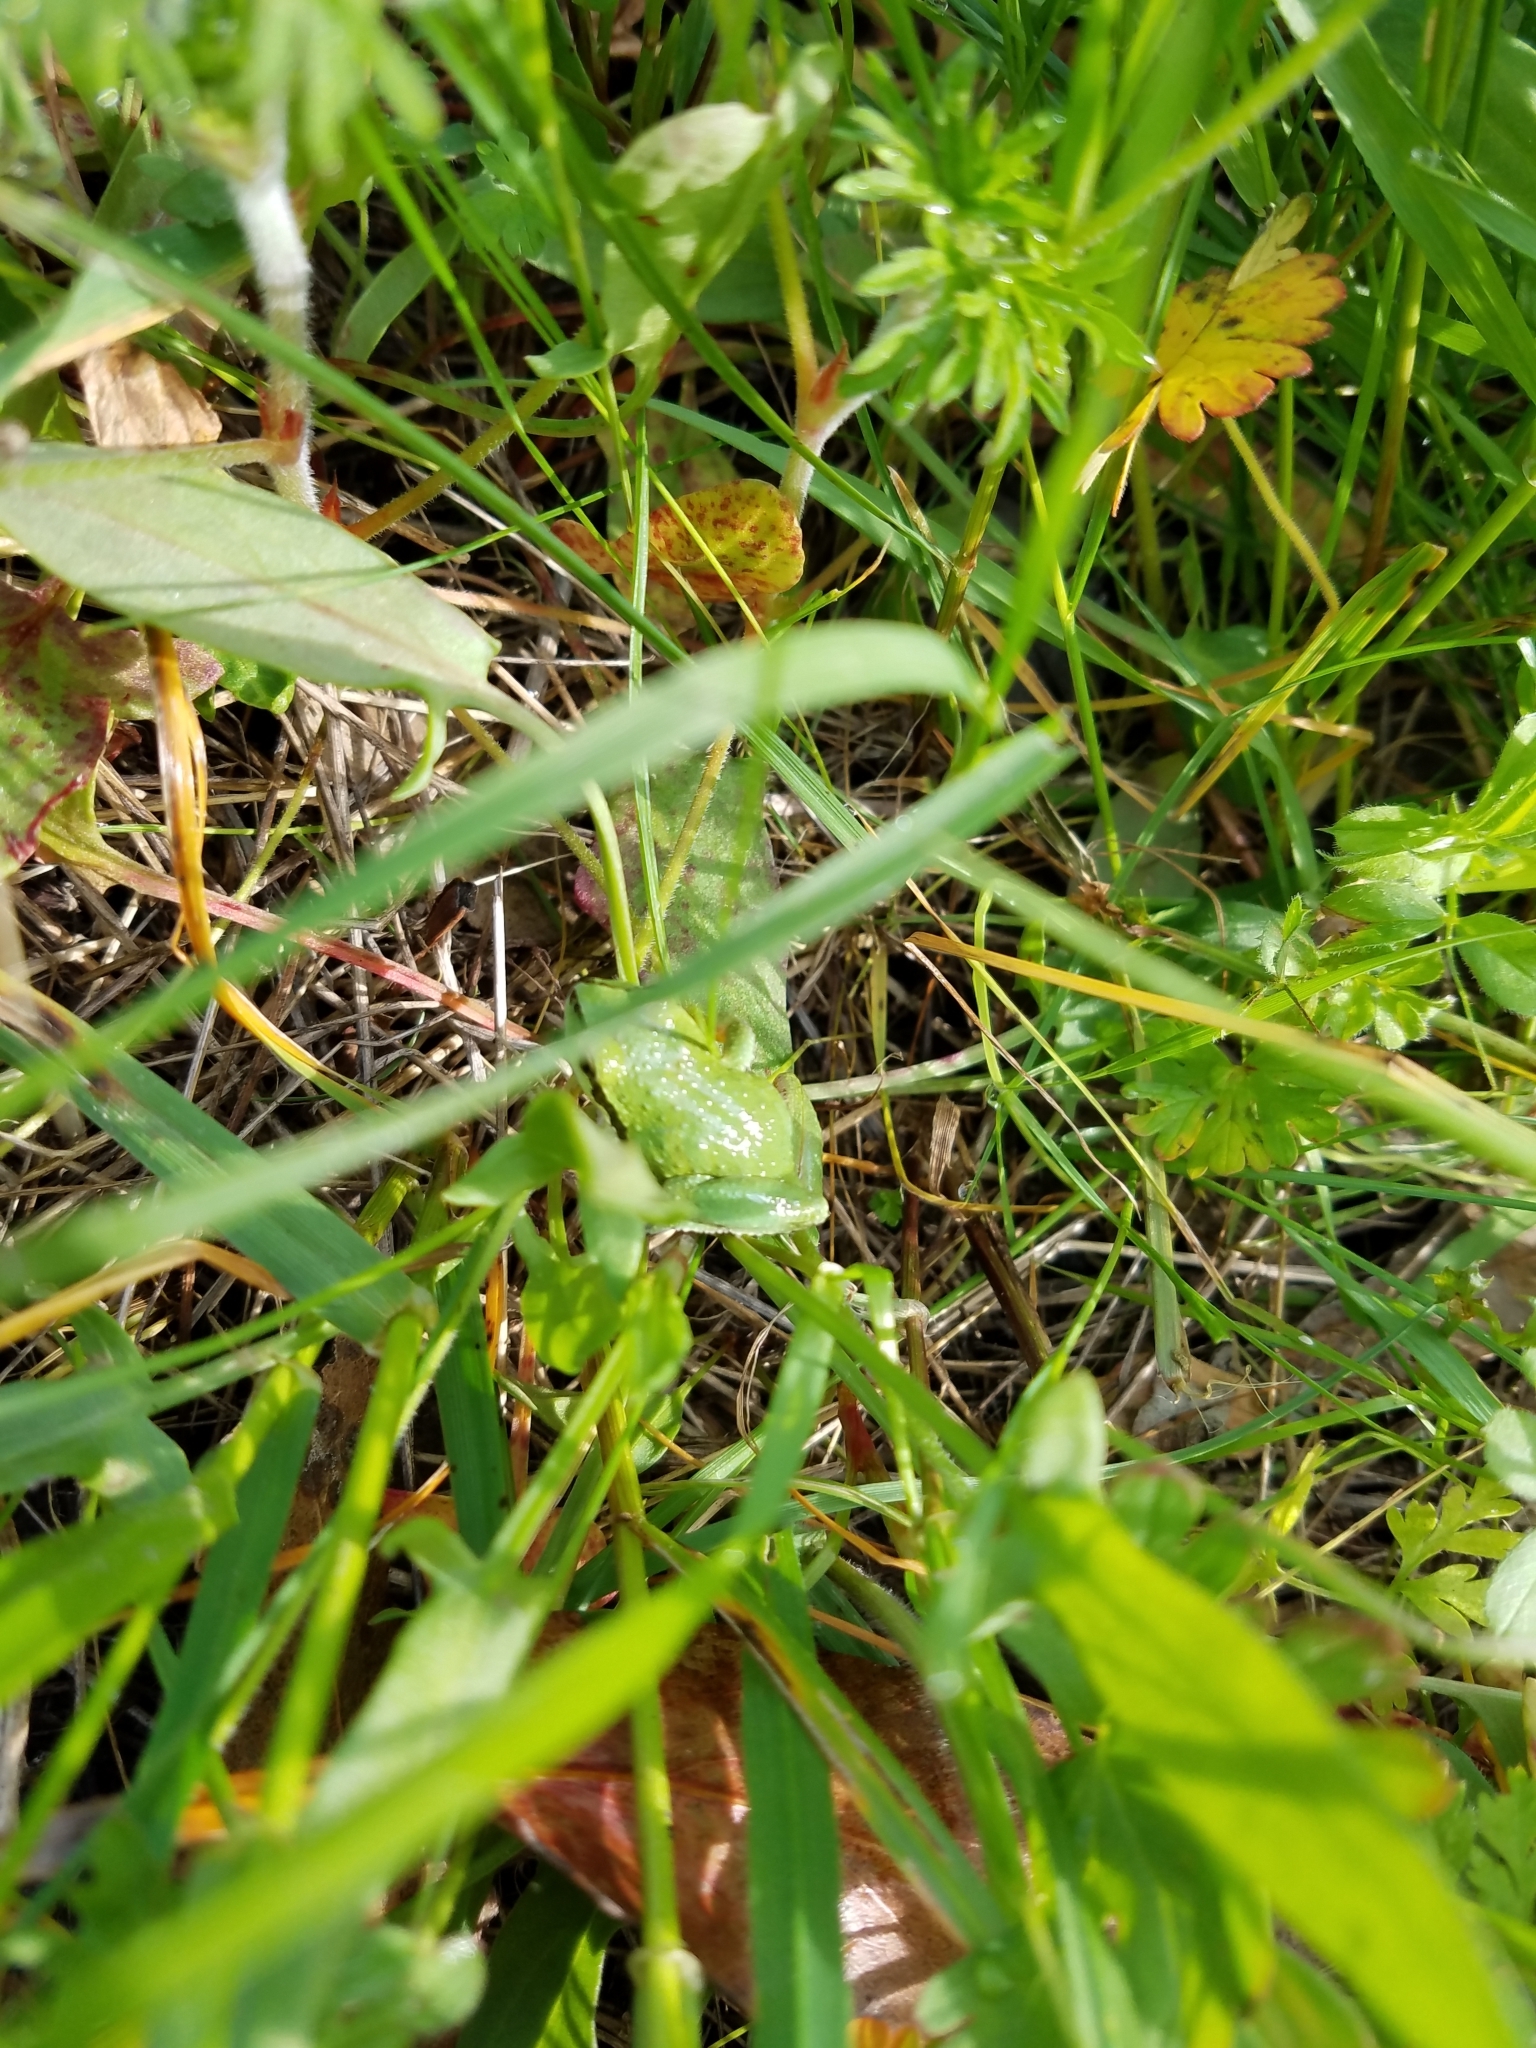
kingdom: Animalia
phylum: Chordata
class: Amphibia
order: Anura
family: Hylidae
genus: Pseudacris
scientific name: Pseudacris regilla
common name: Pacific chorus frog
